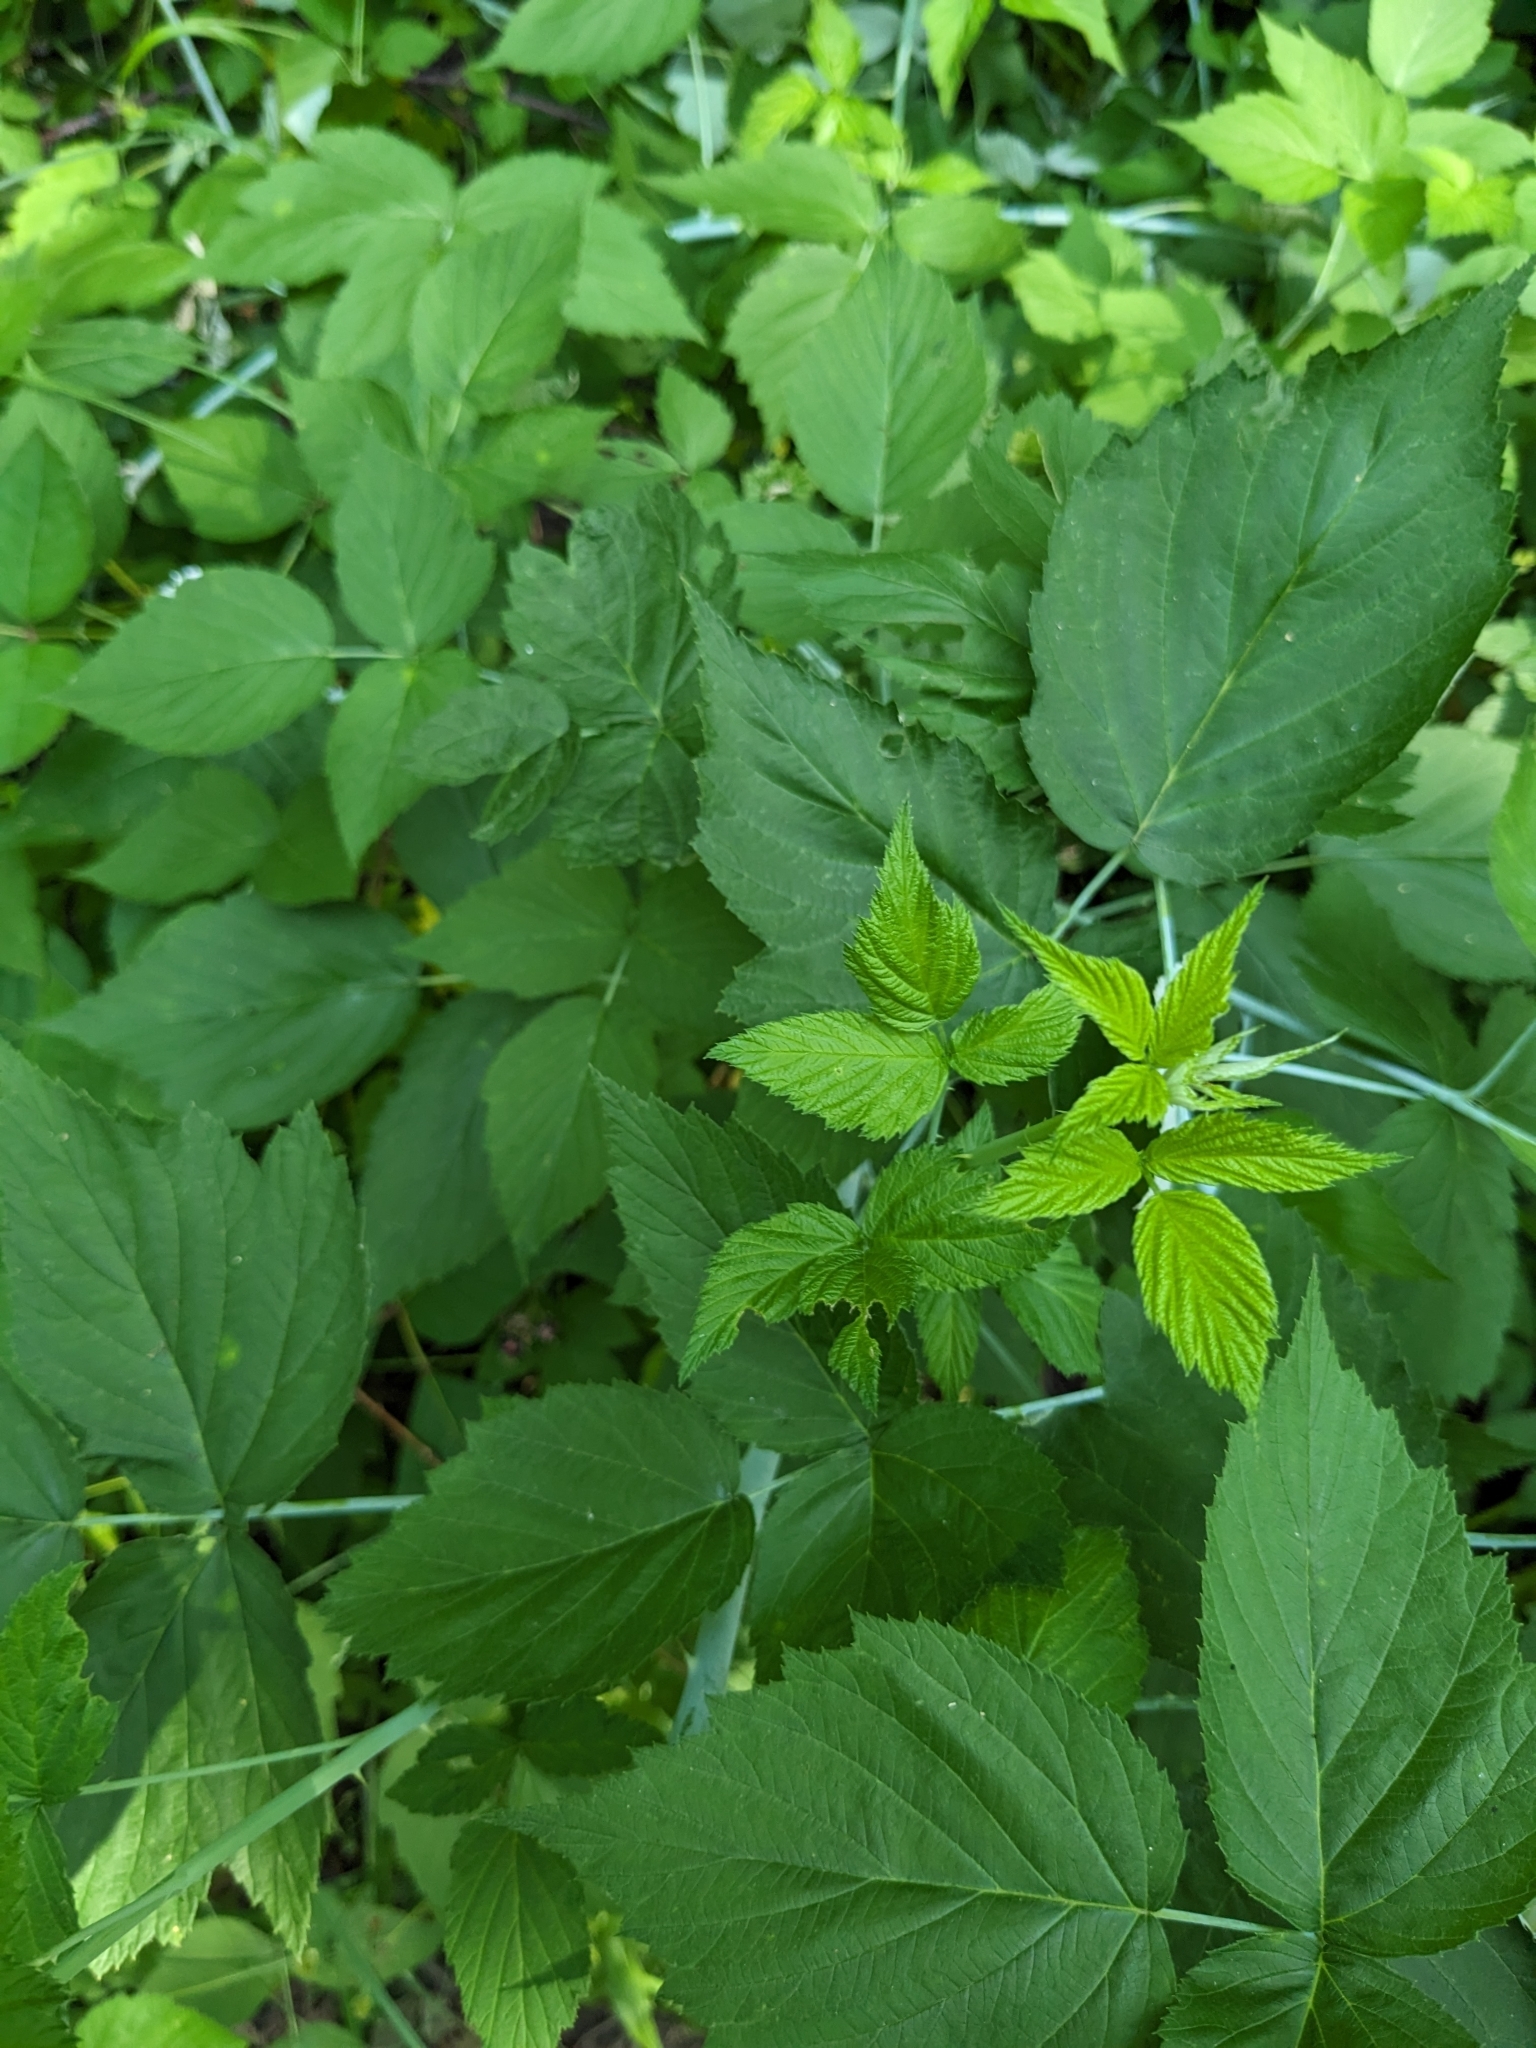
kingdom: Plantae
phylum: Tracheophyta
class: Magnoliopsida
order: Rosales
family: Rosaceae
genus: Rubus
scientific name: Rubus occidentalis
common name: Black raspberry
